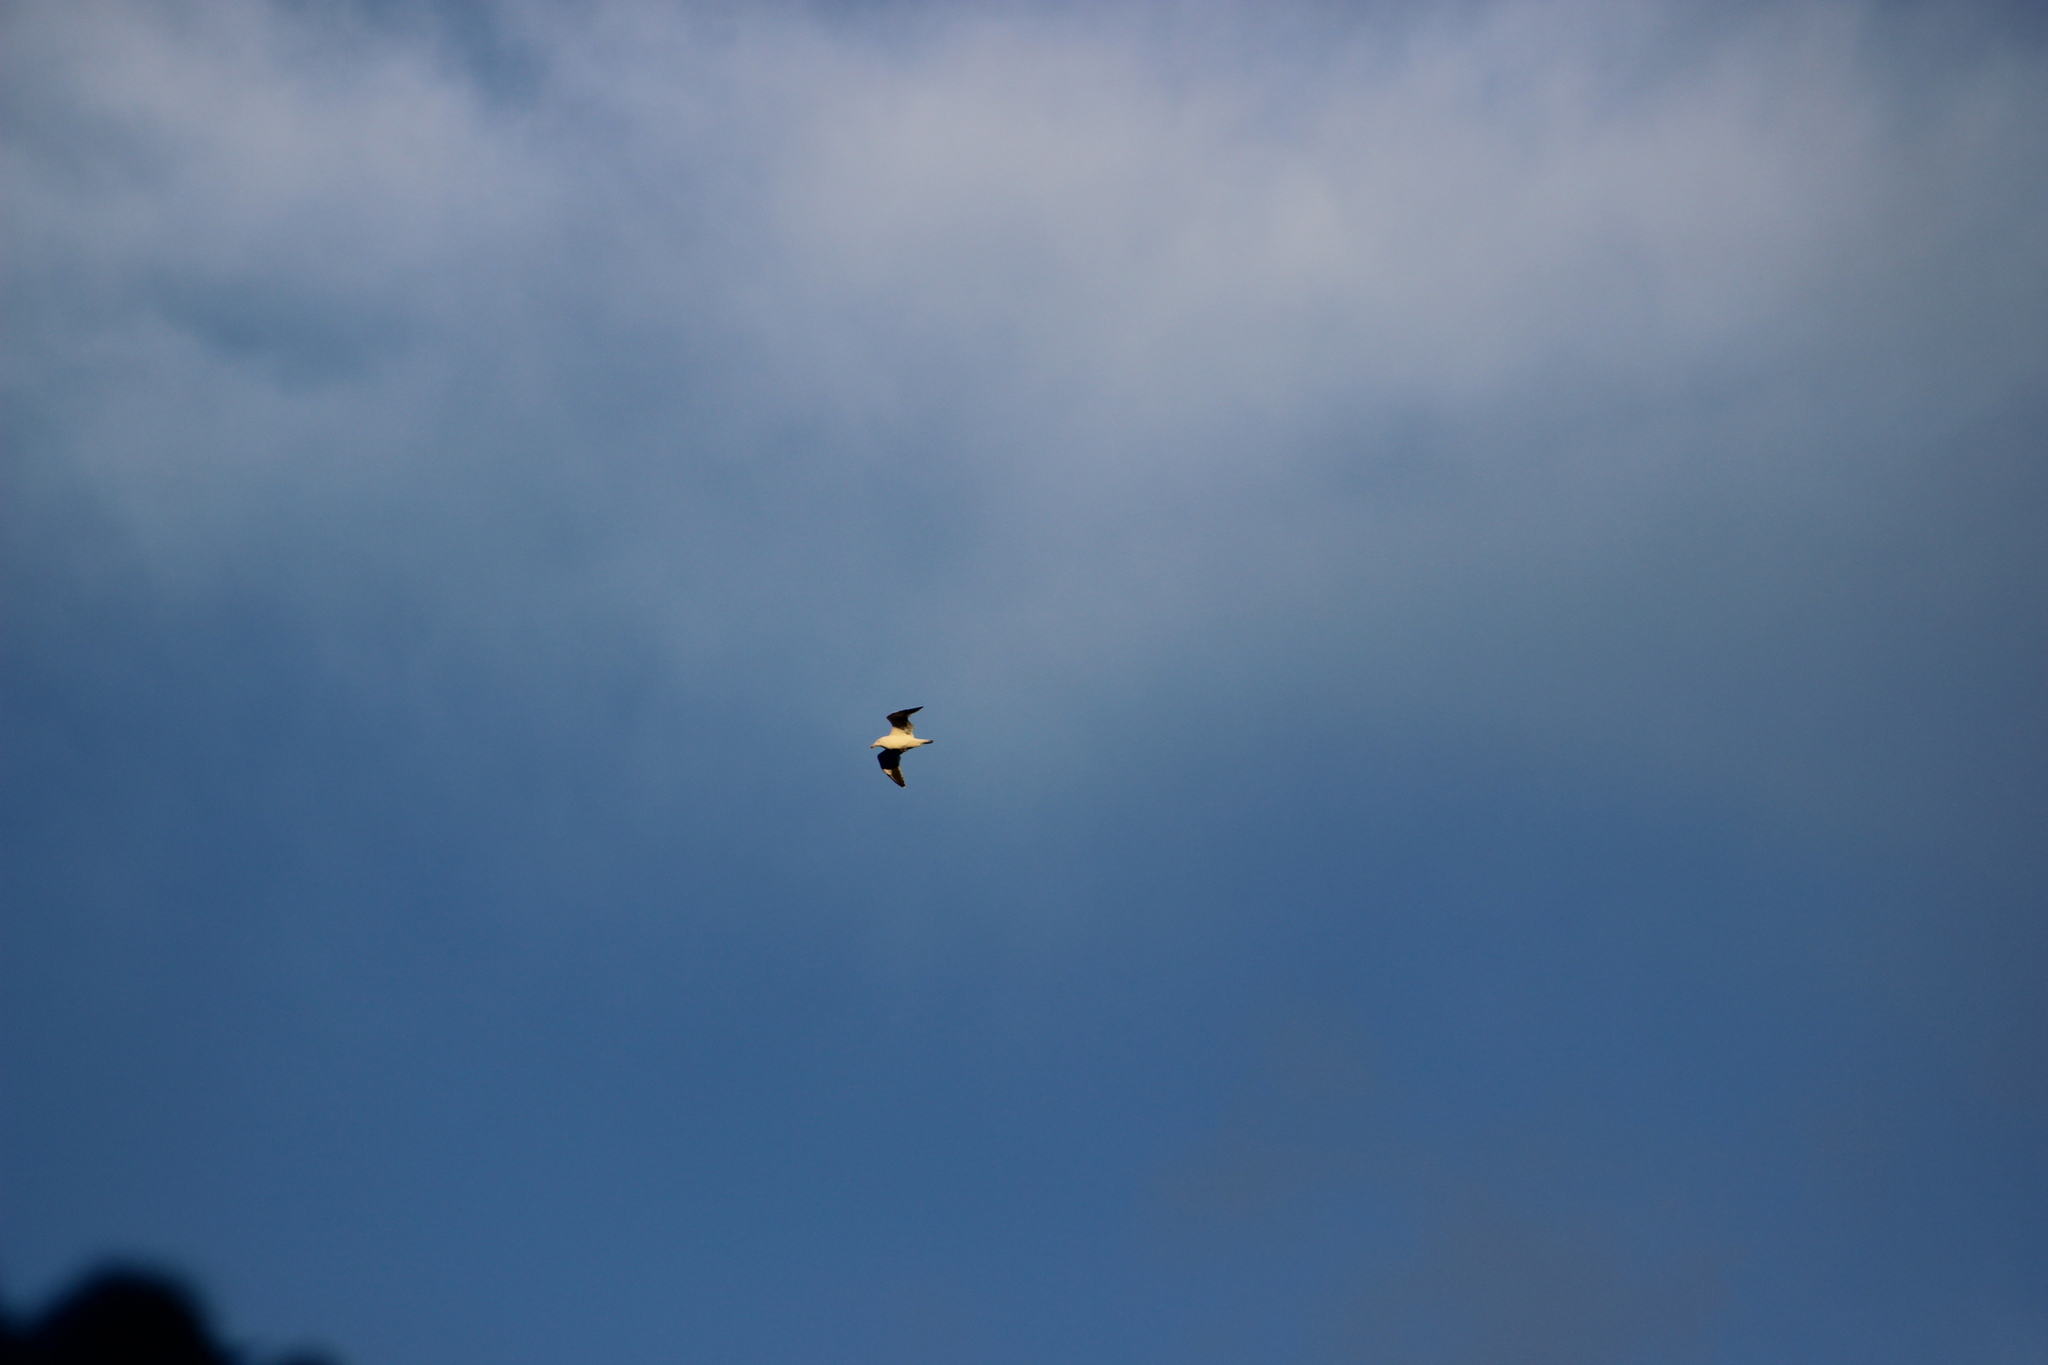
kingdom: Animalia
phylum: Chordata
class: Aves
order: Charadriiformes
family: Laridae
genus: Larus
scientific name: Larus dominicanus
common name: Kelp gull
